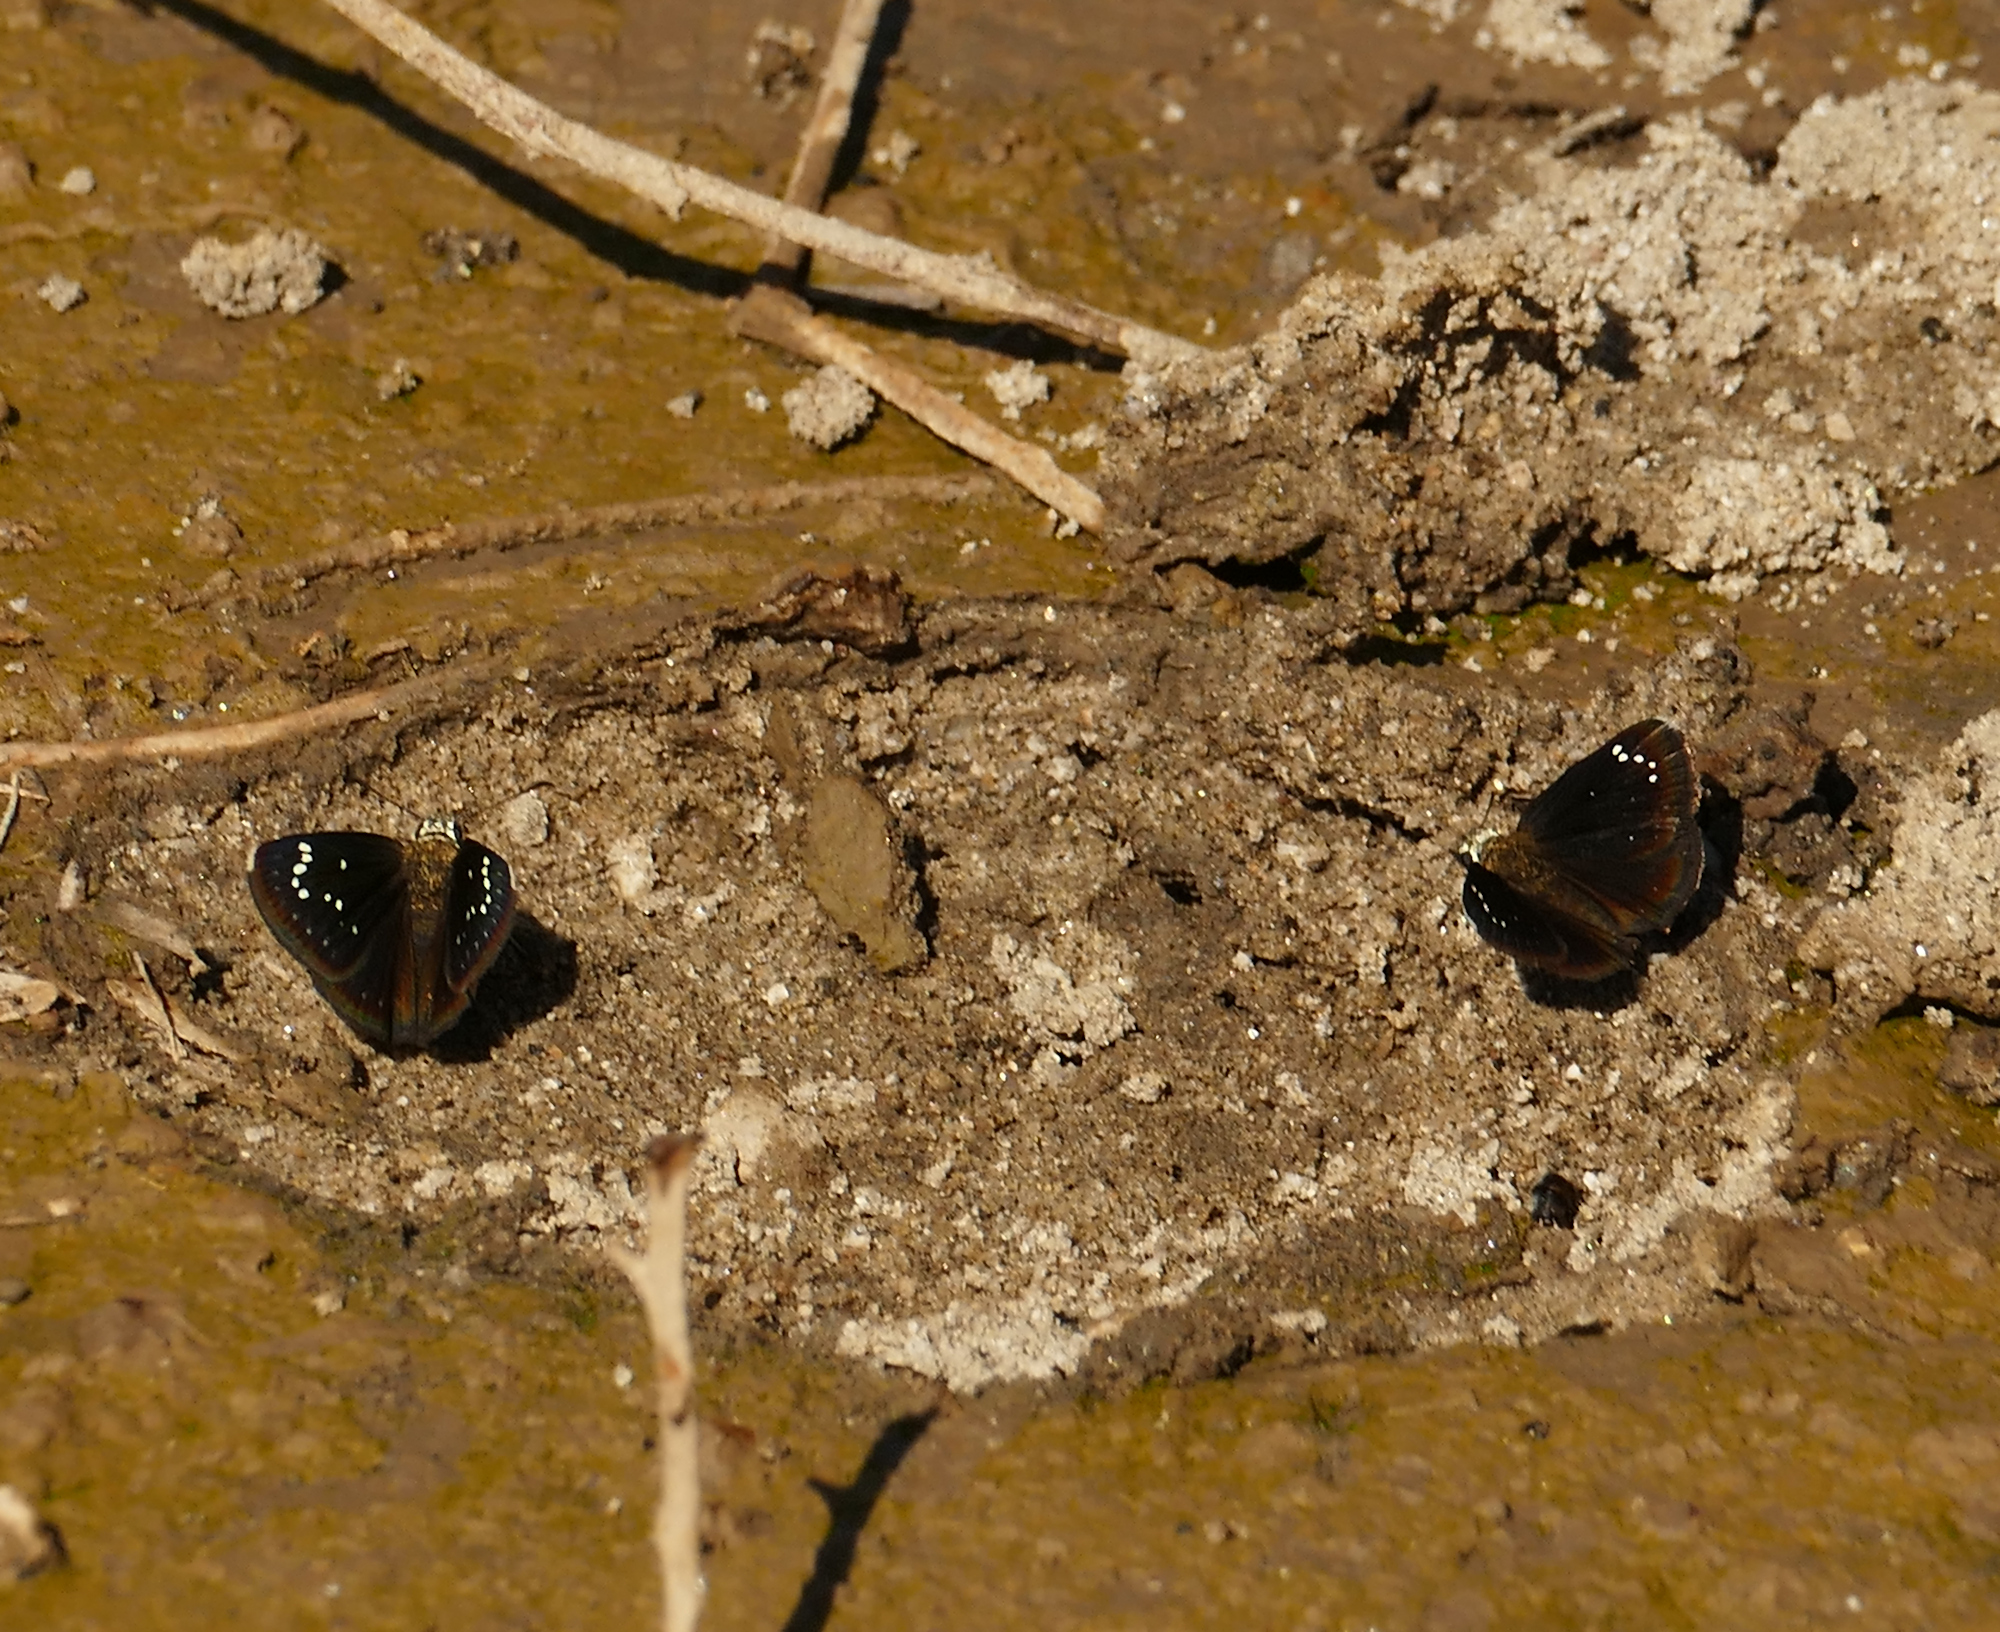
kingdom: Animalia
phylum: Arthropoda
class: Insecta
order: Lepidoptera
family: Hesperiidae
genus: Pholisora
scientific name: Pholisora catullus
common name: Common sootywing
